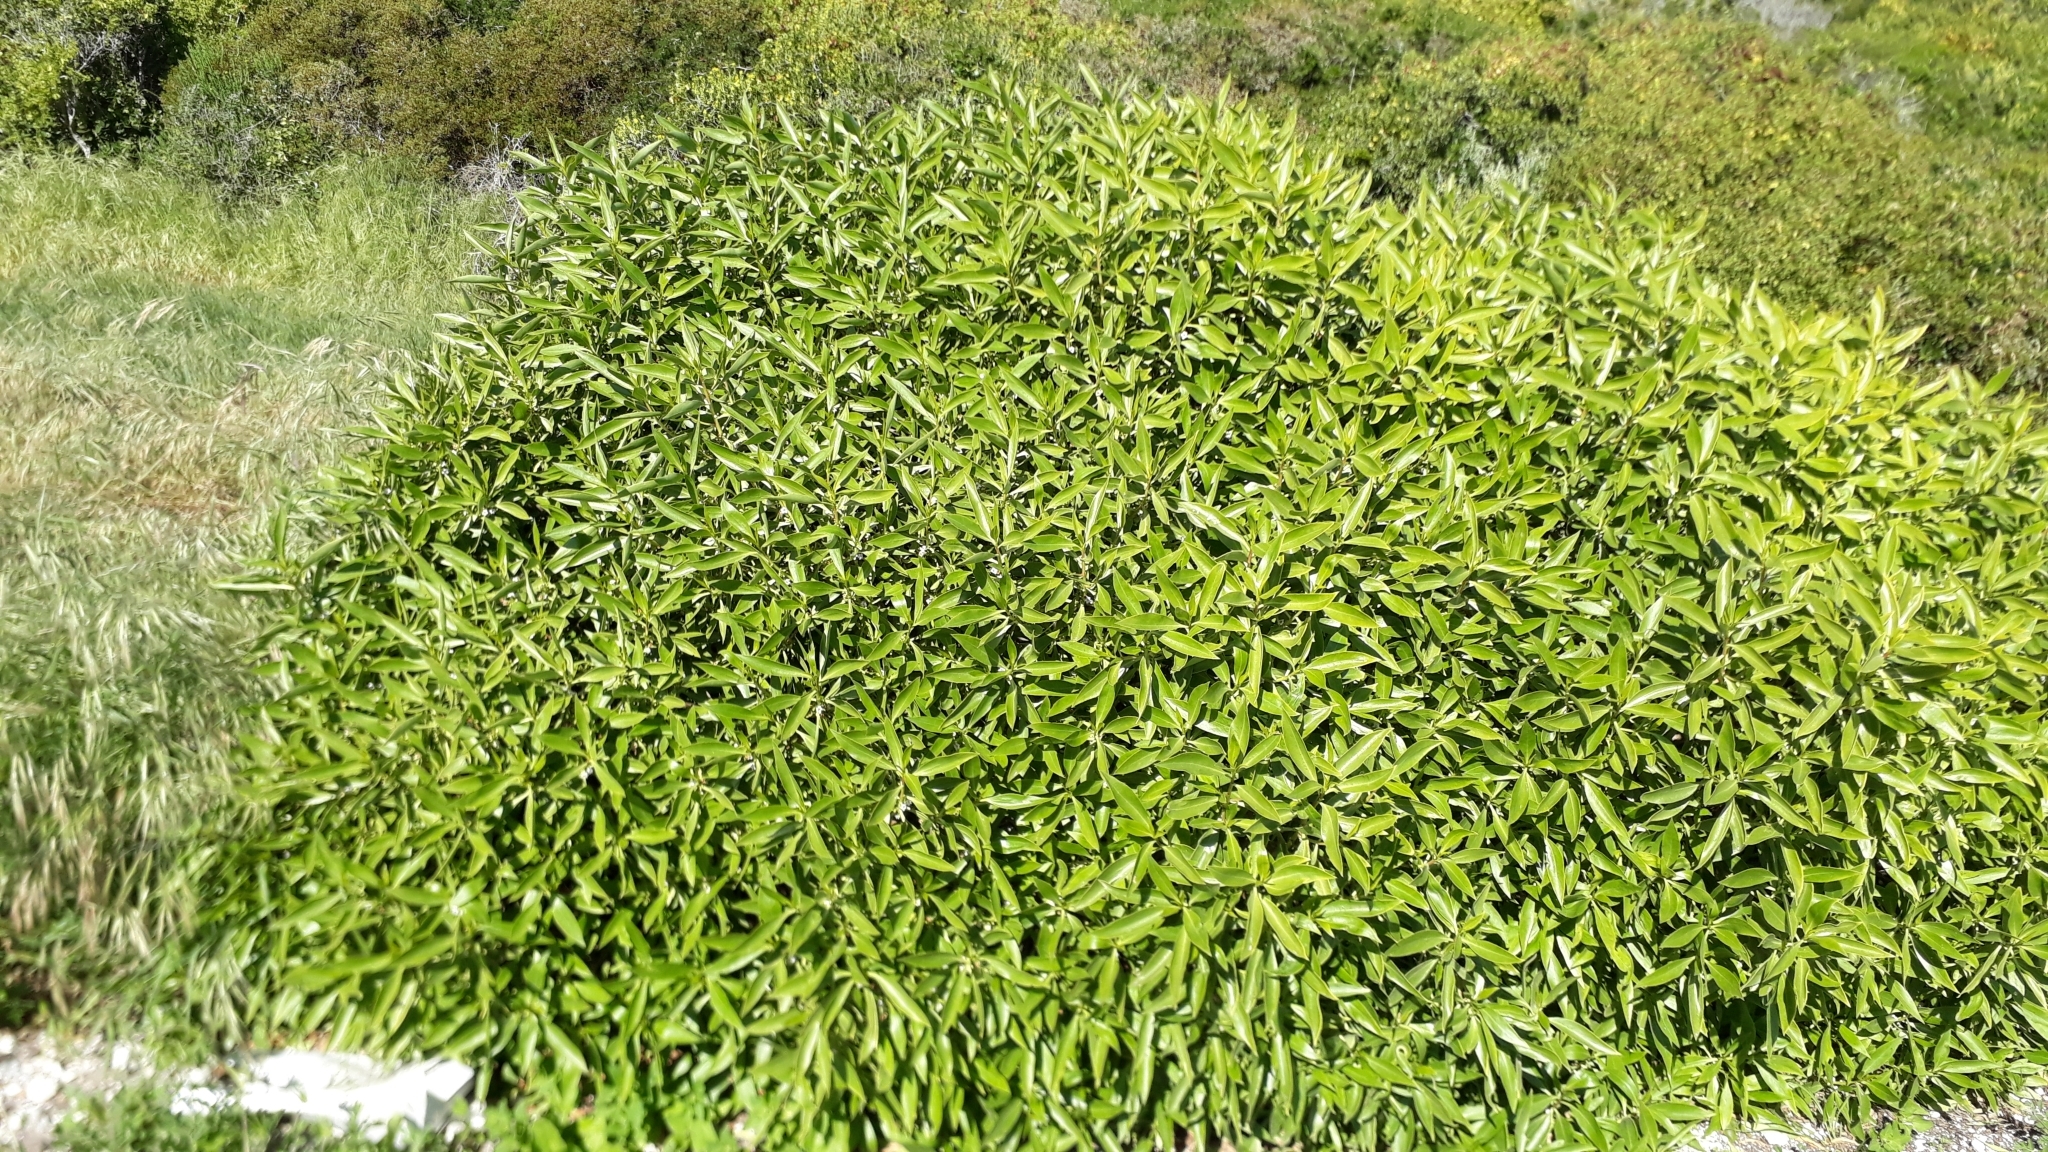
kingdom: Plantae
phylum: Tracheophyta
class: Magnoliopsida
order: Lamiales
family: Scrophulariaceae
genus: Myoporum
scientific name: Myoporum insulare
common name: Common boobialla
